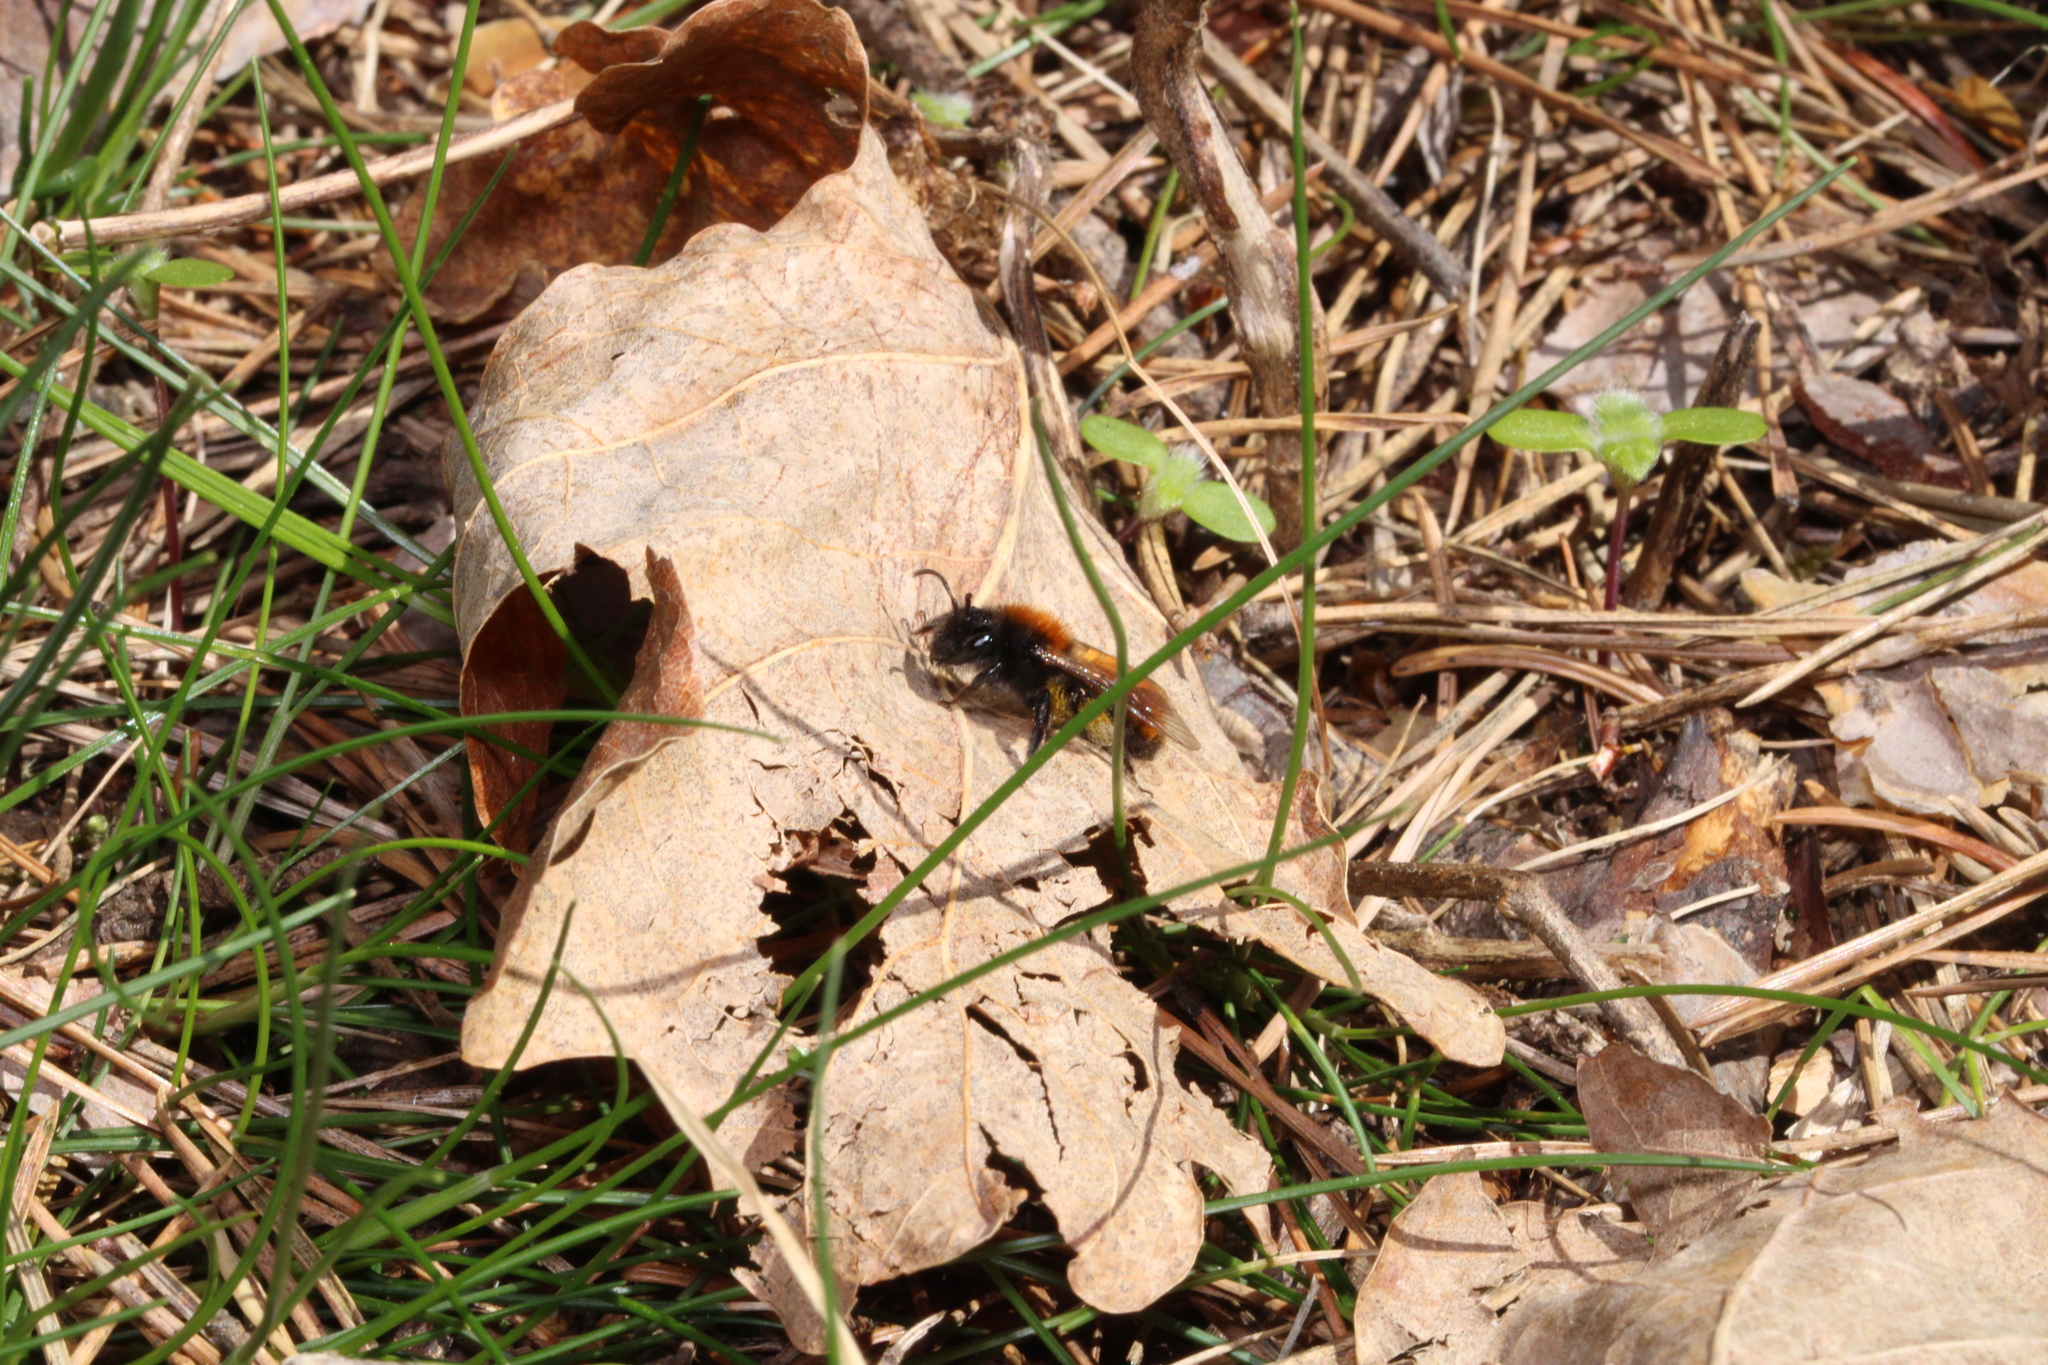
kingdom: Animalia
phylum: Arthropoda
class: Insecta
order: Hymenoptera
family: Andrenidae
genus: Andrena
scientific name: Andrena fulva
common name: Tawny mining bee
